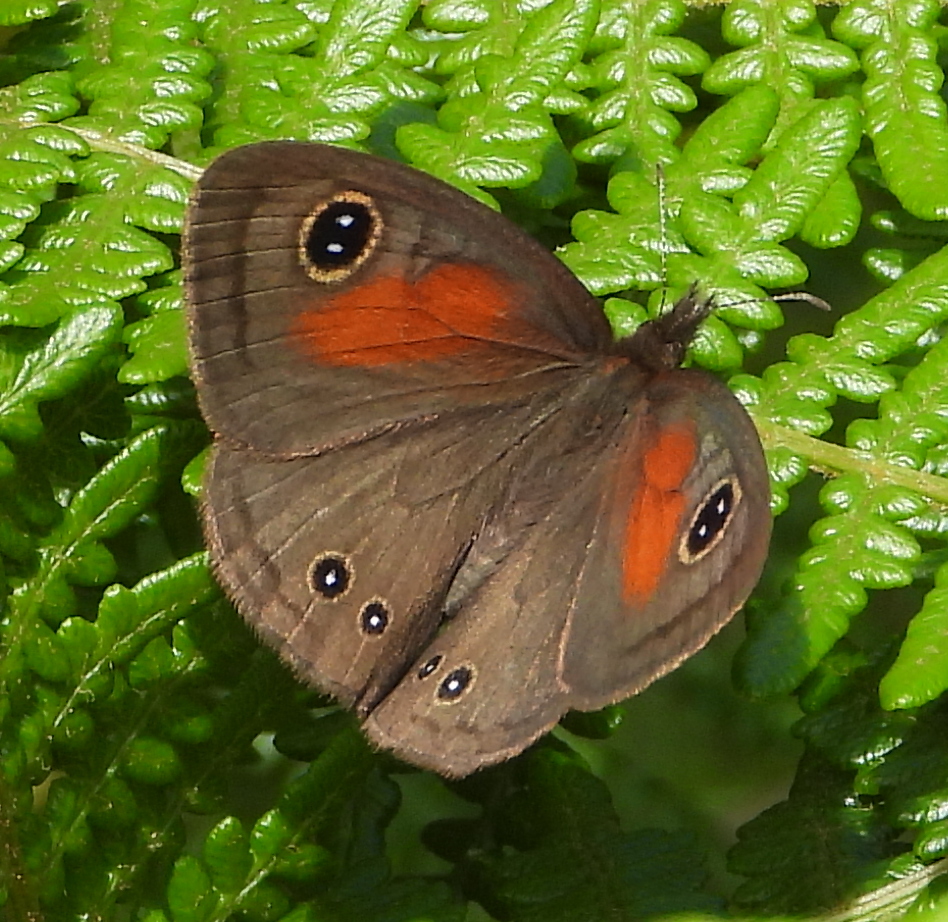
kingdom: Animalia
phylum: Arthropoda
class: Insecta
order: Lepidoptera
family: Nymphalidae
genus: Cassionympha
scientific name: Cassionympha cassius
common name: Rainforest brown
